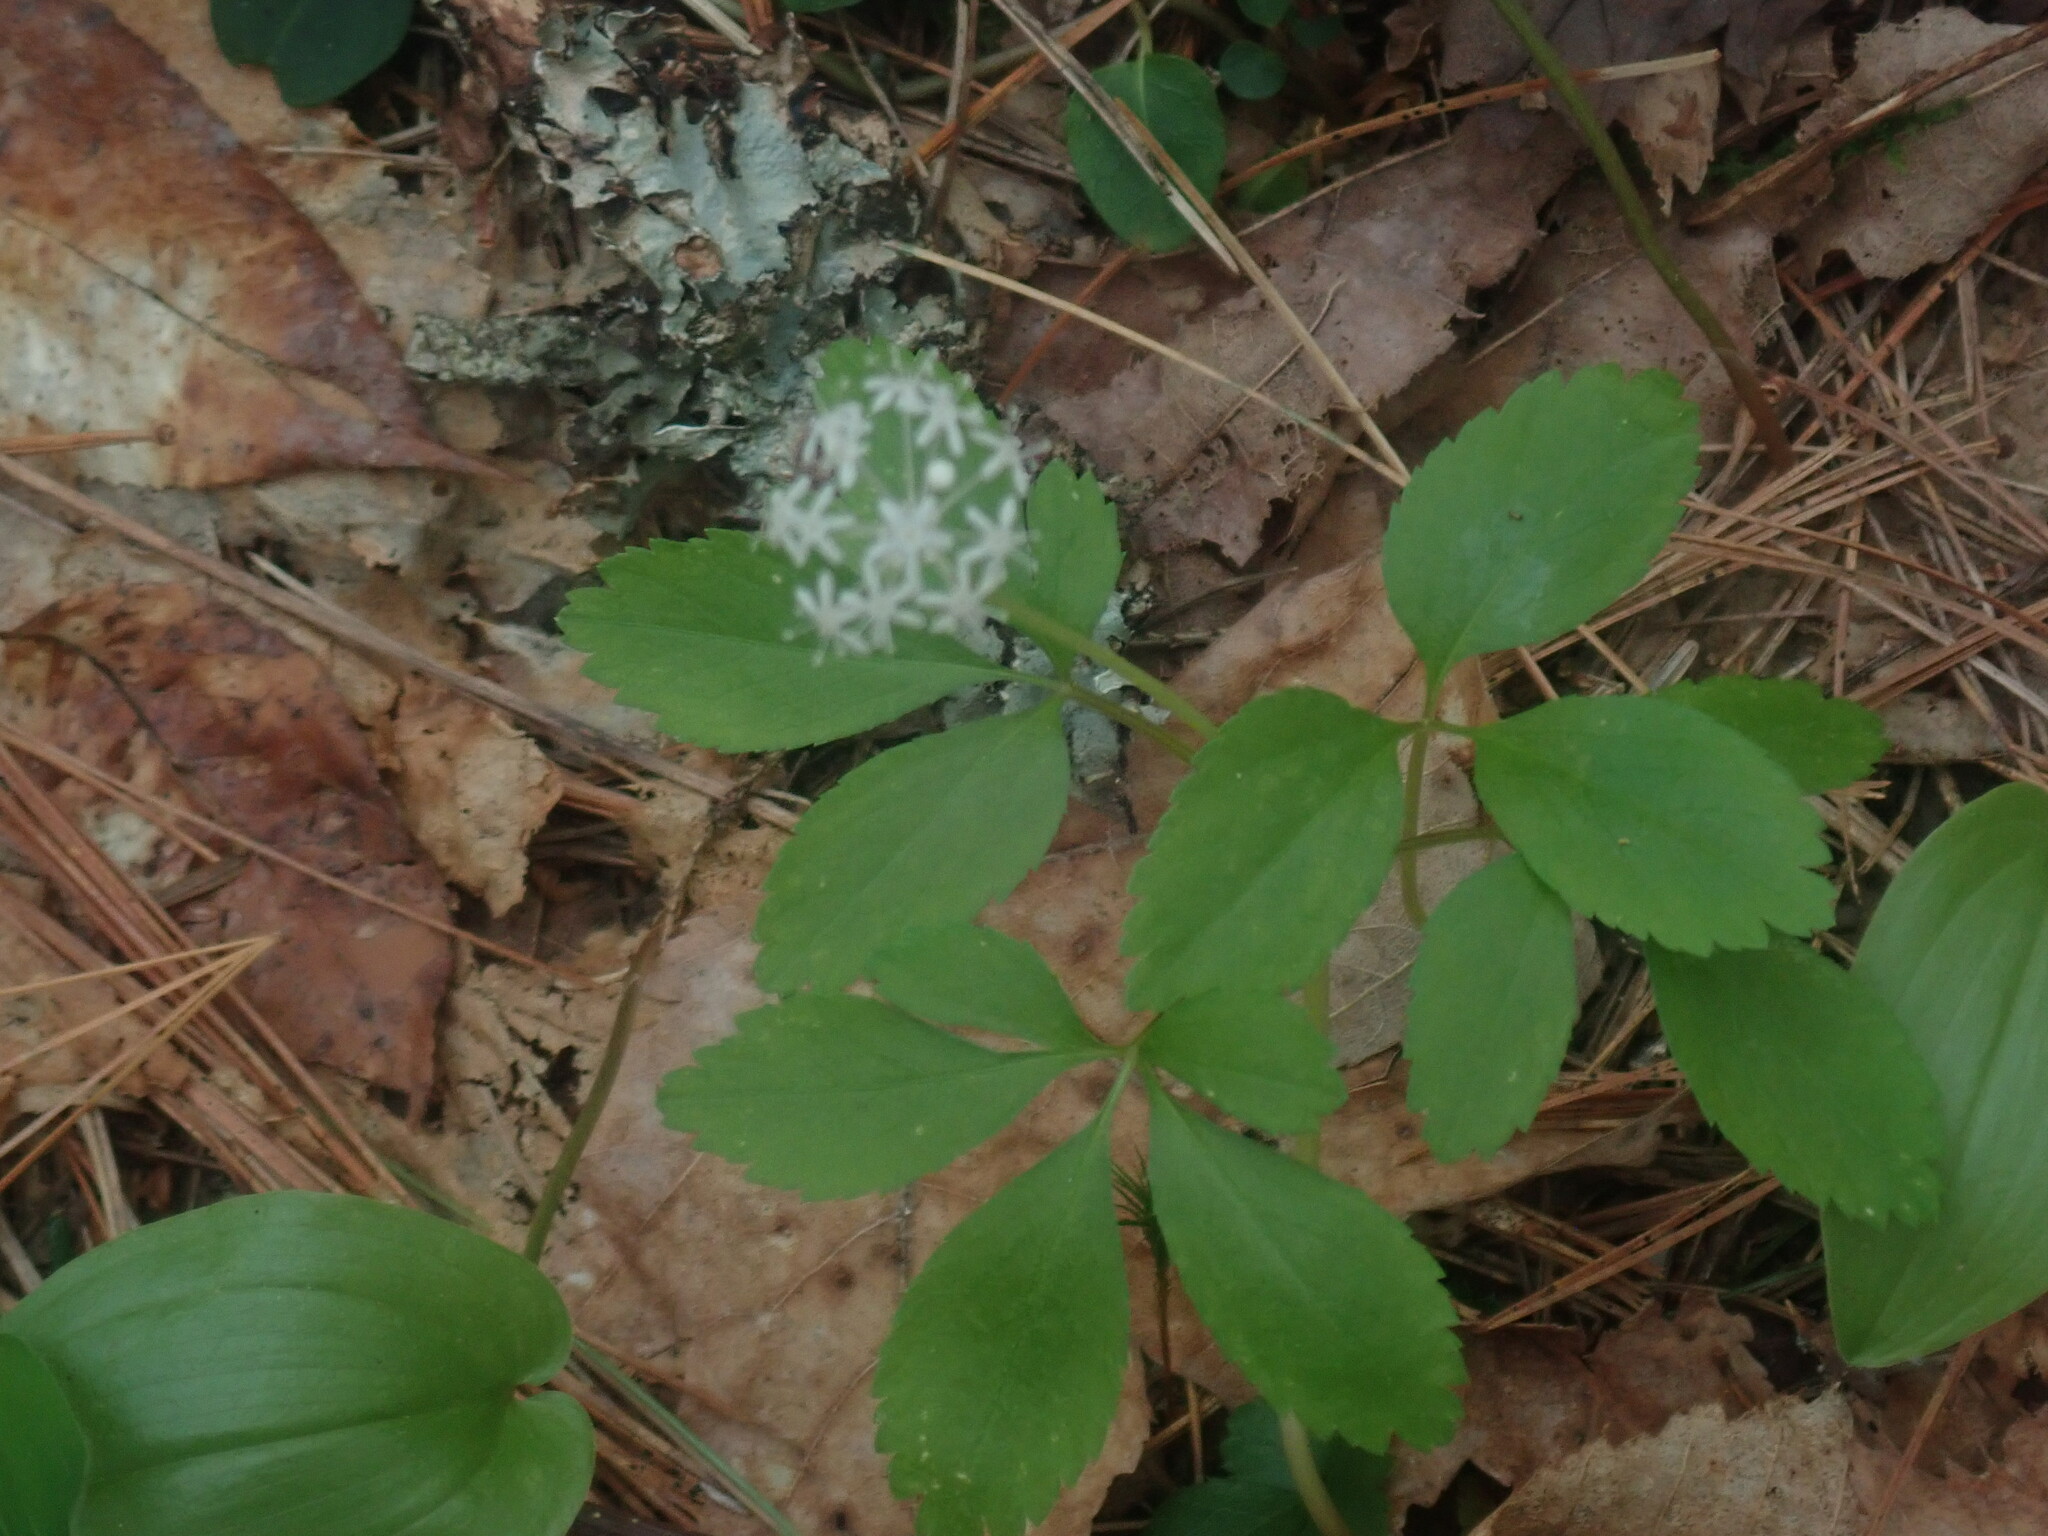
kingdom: Plantae
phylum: Tracheophyta
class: Magnoliopsida
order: Apiales
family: Araliaceae
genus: Panax
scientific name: Panax trifolius
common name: Dwarf ginseng
